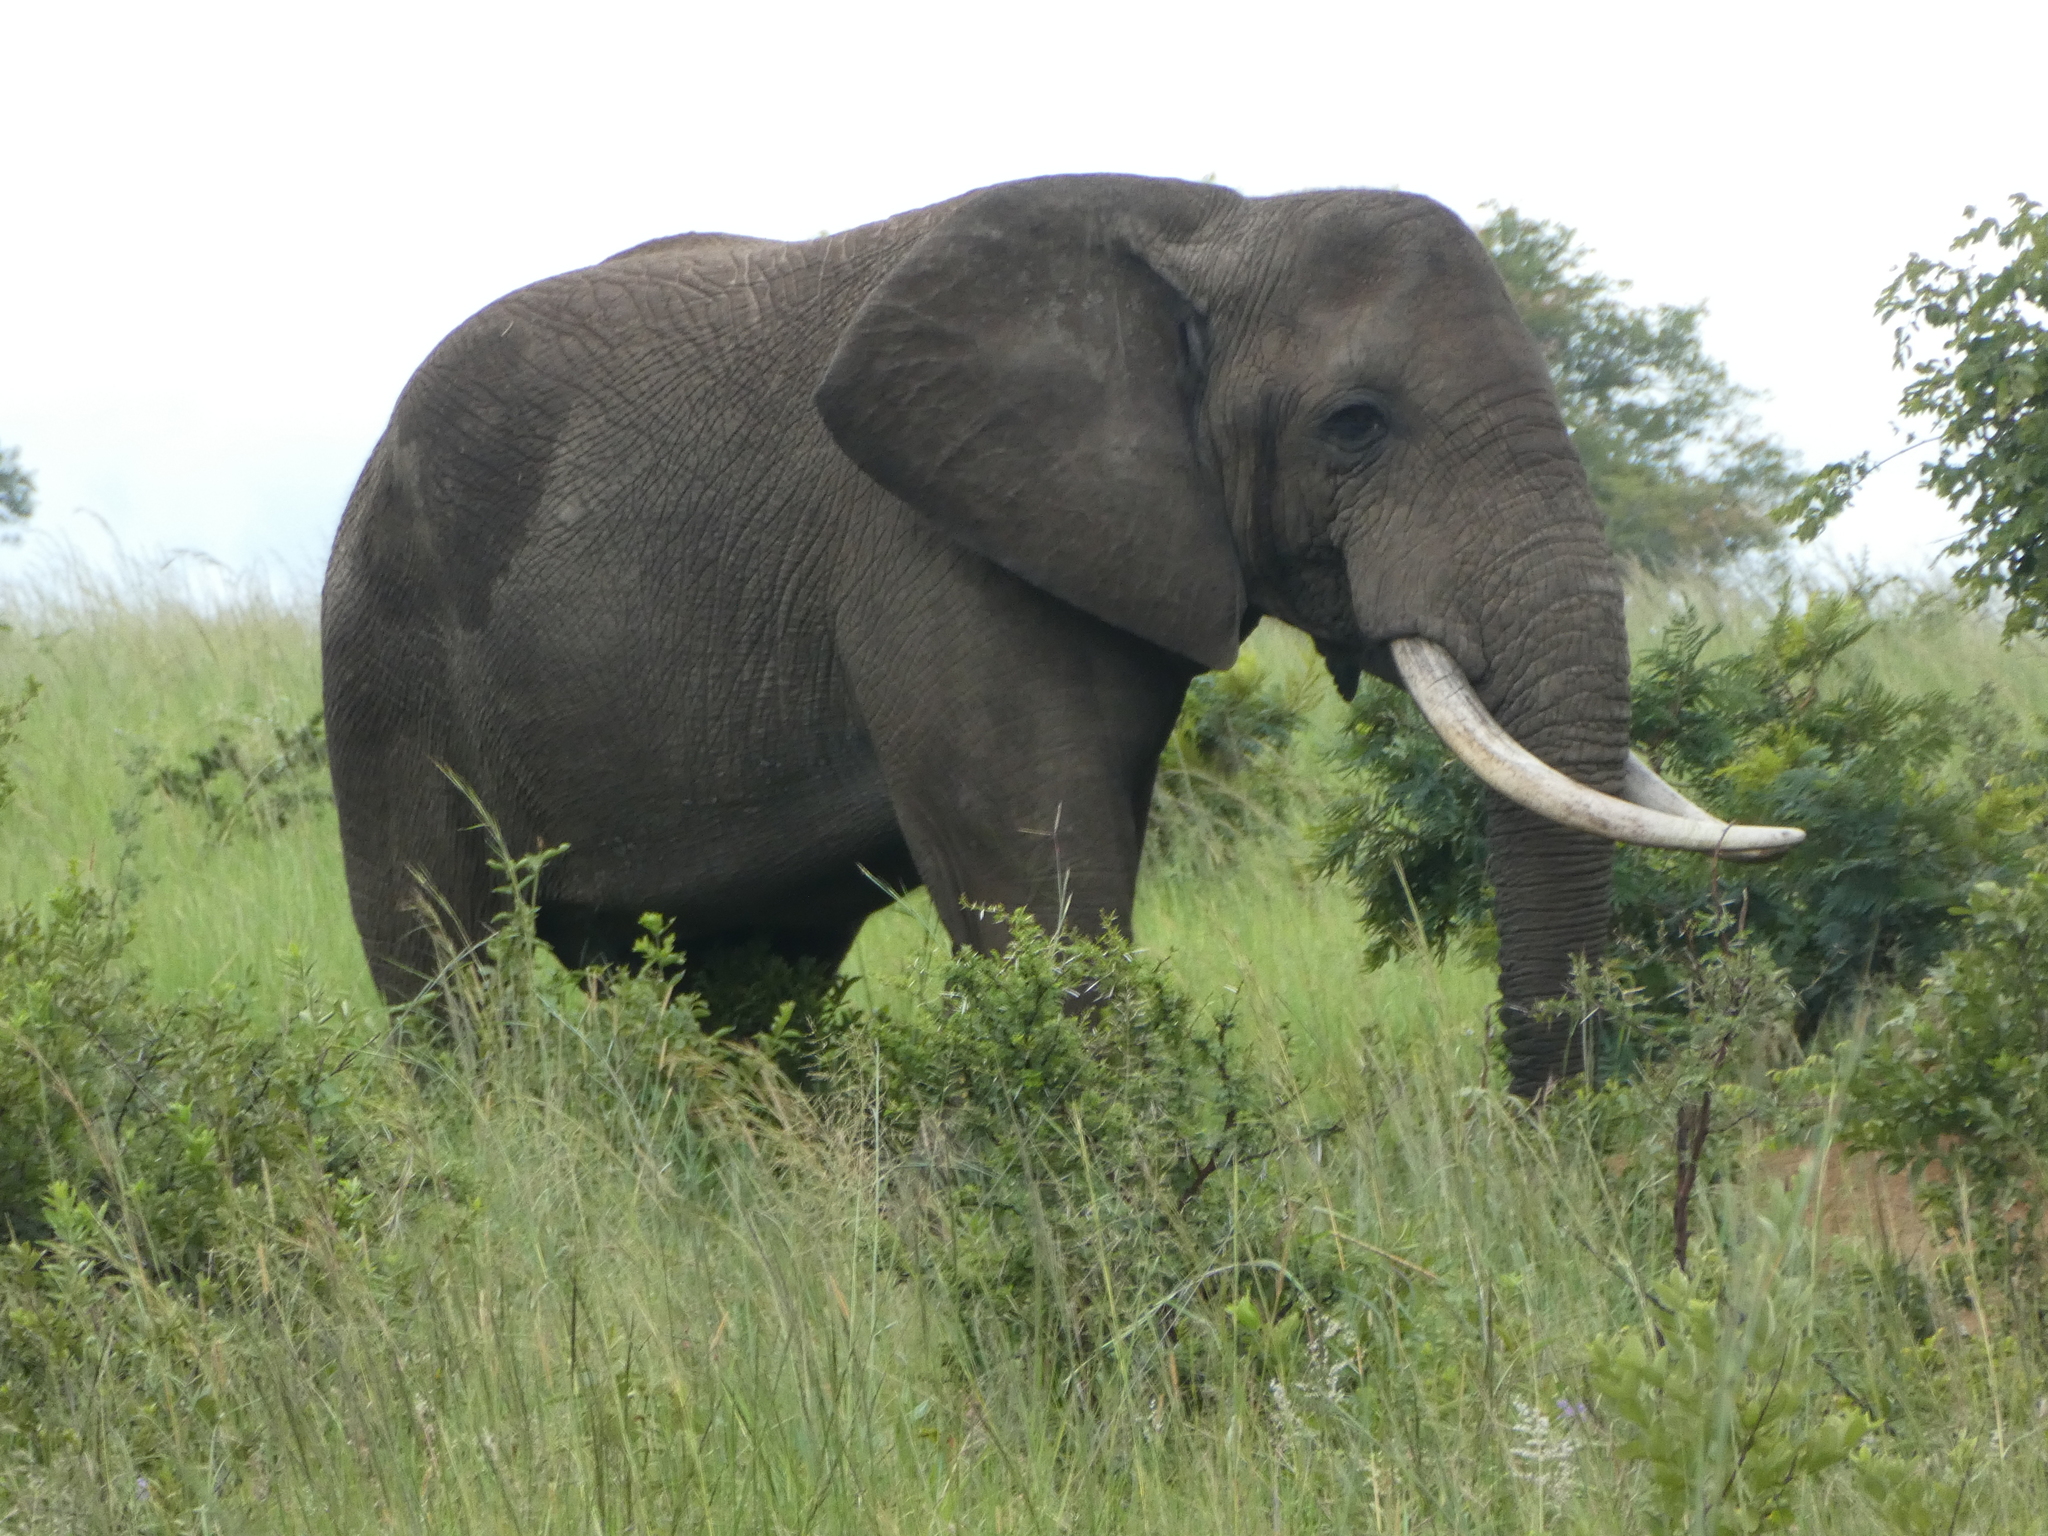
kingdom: Animalia
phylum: Chordata
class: Mammalia
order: Proboscidea
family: Elephantidae
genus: Loxodonta
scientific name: Loxodonta africana
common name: African elephant
